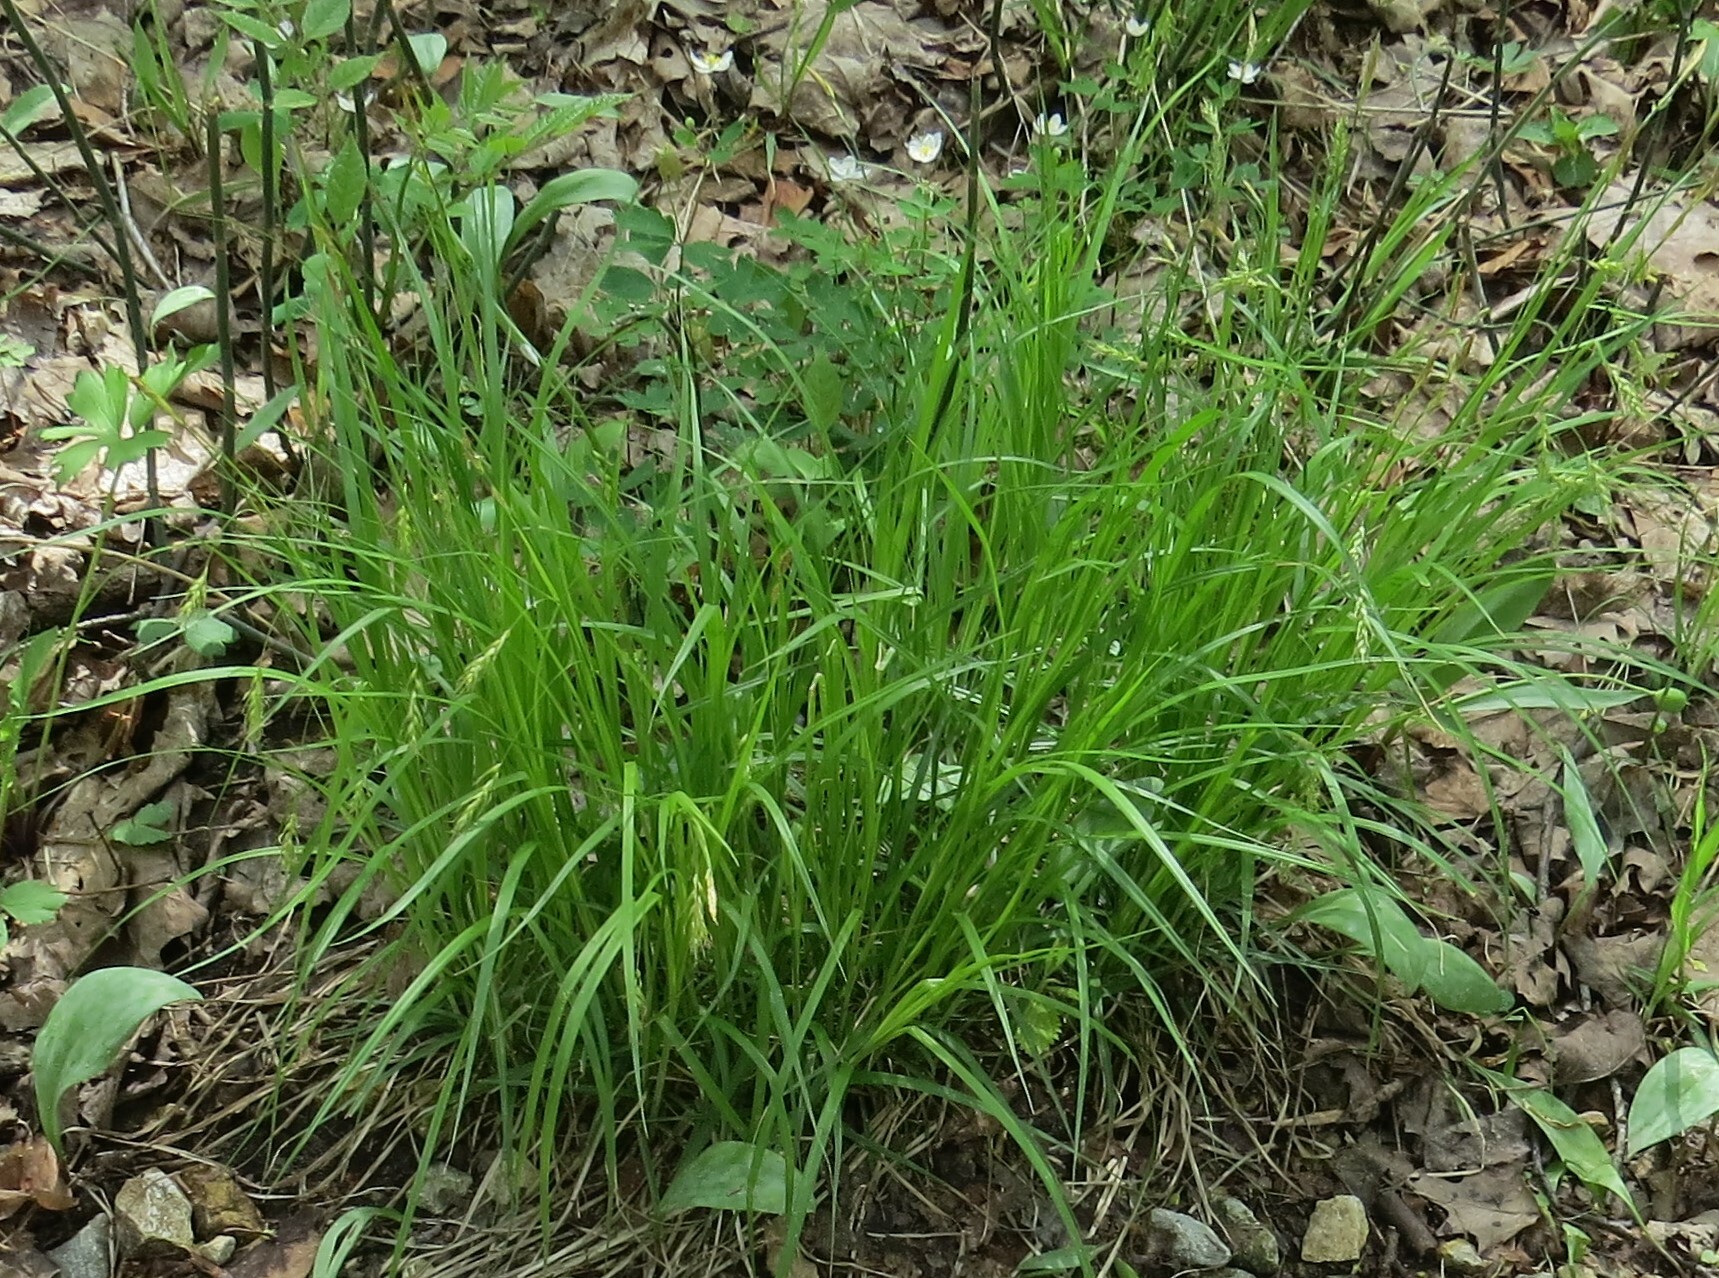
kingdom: Plantae
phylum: Tracheophyta
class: Liliopsida
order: Poales
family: Cyperaceae
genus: Carex
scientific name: Carex sprengelii
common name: Long-beaked sedge
